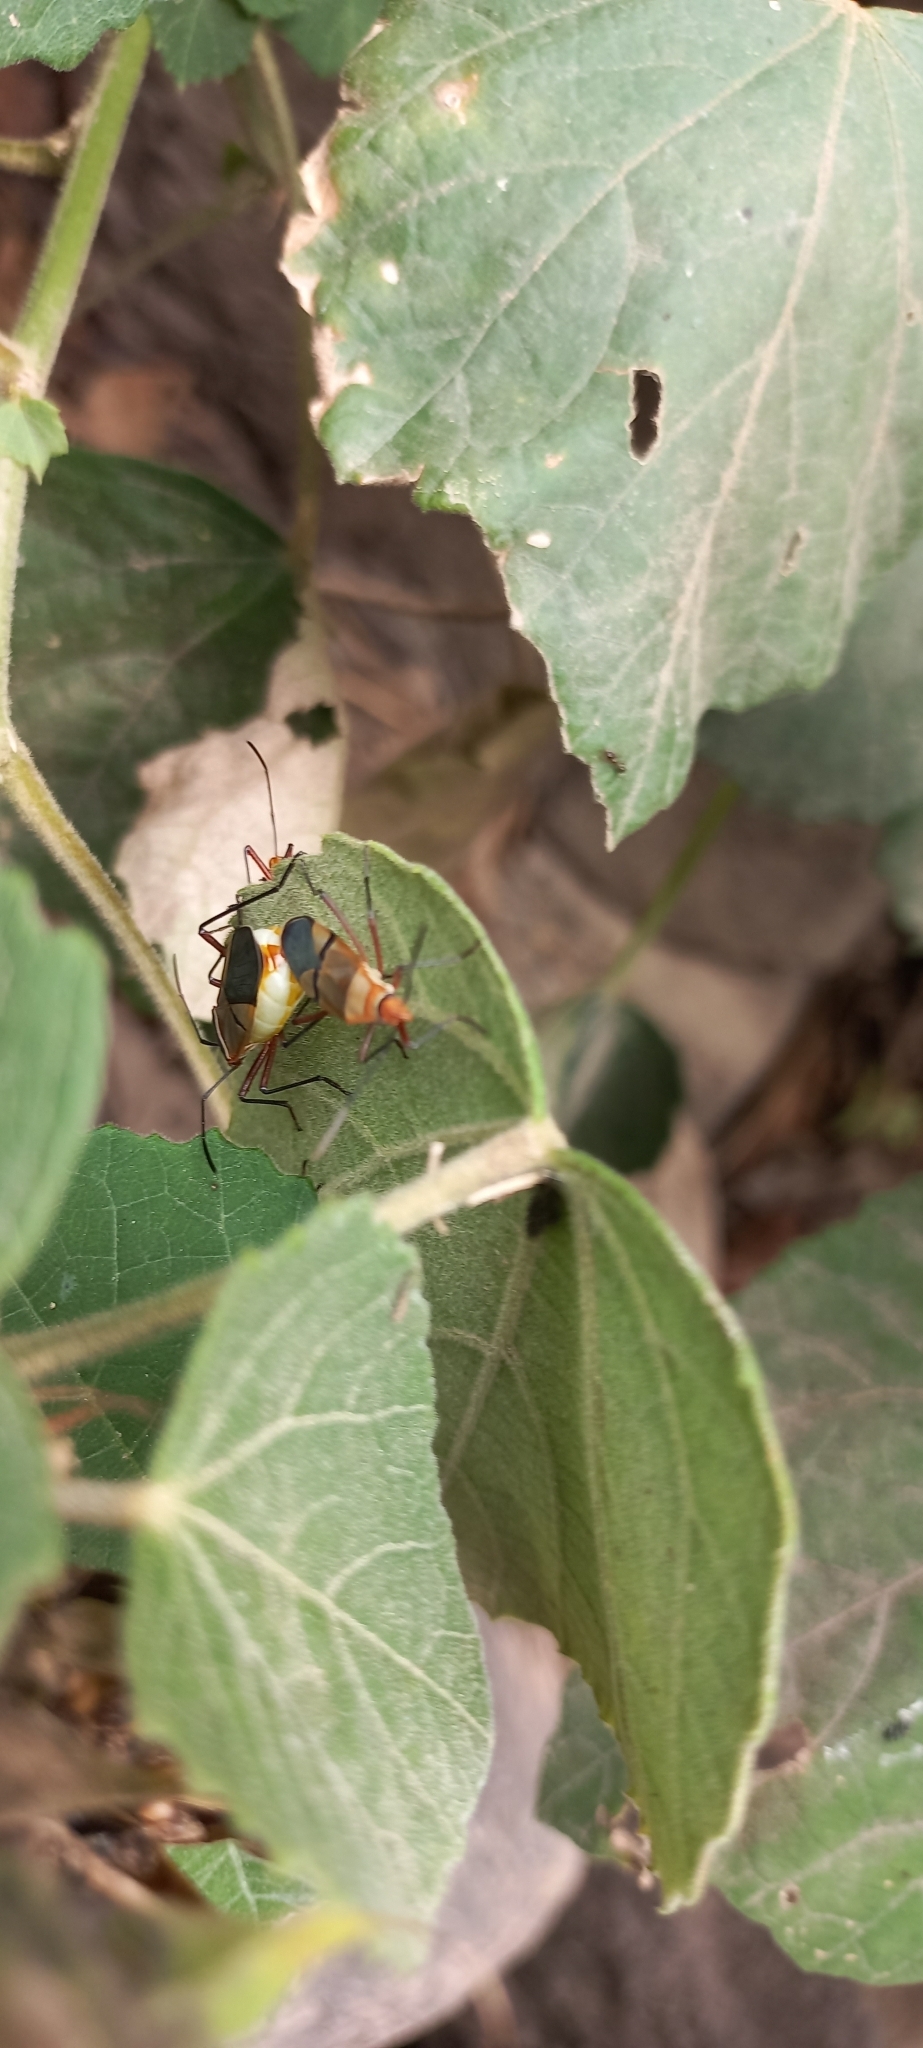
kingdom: Animalia
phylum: Arthropoda
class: Insecta
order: Hemiptera
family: Pyrrhocoridae
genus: Dysdercus
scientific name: Dysdercus
